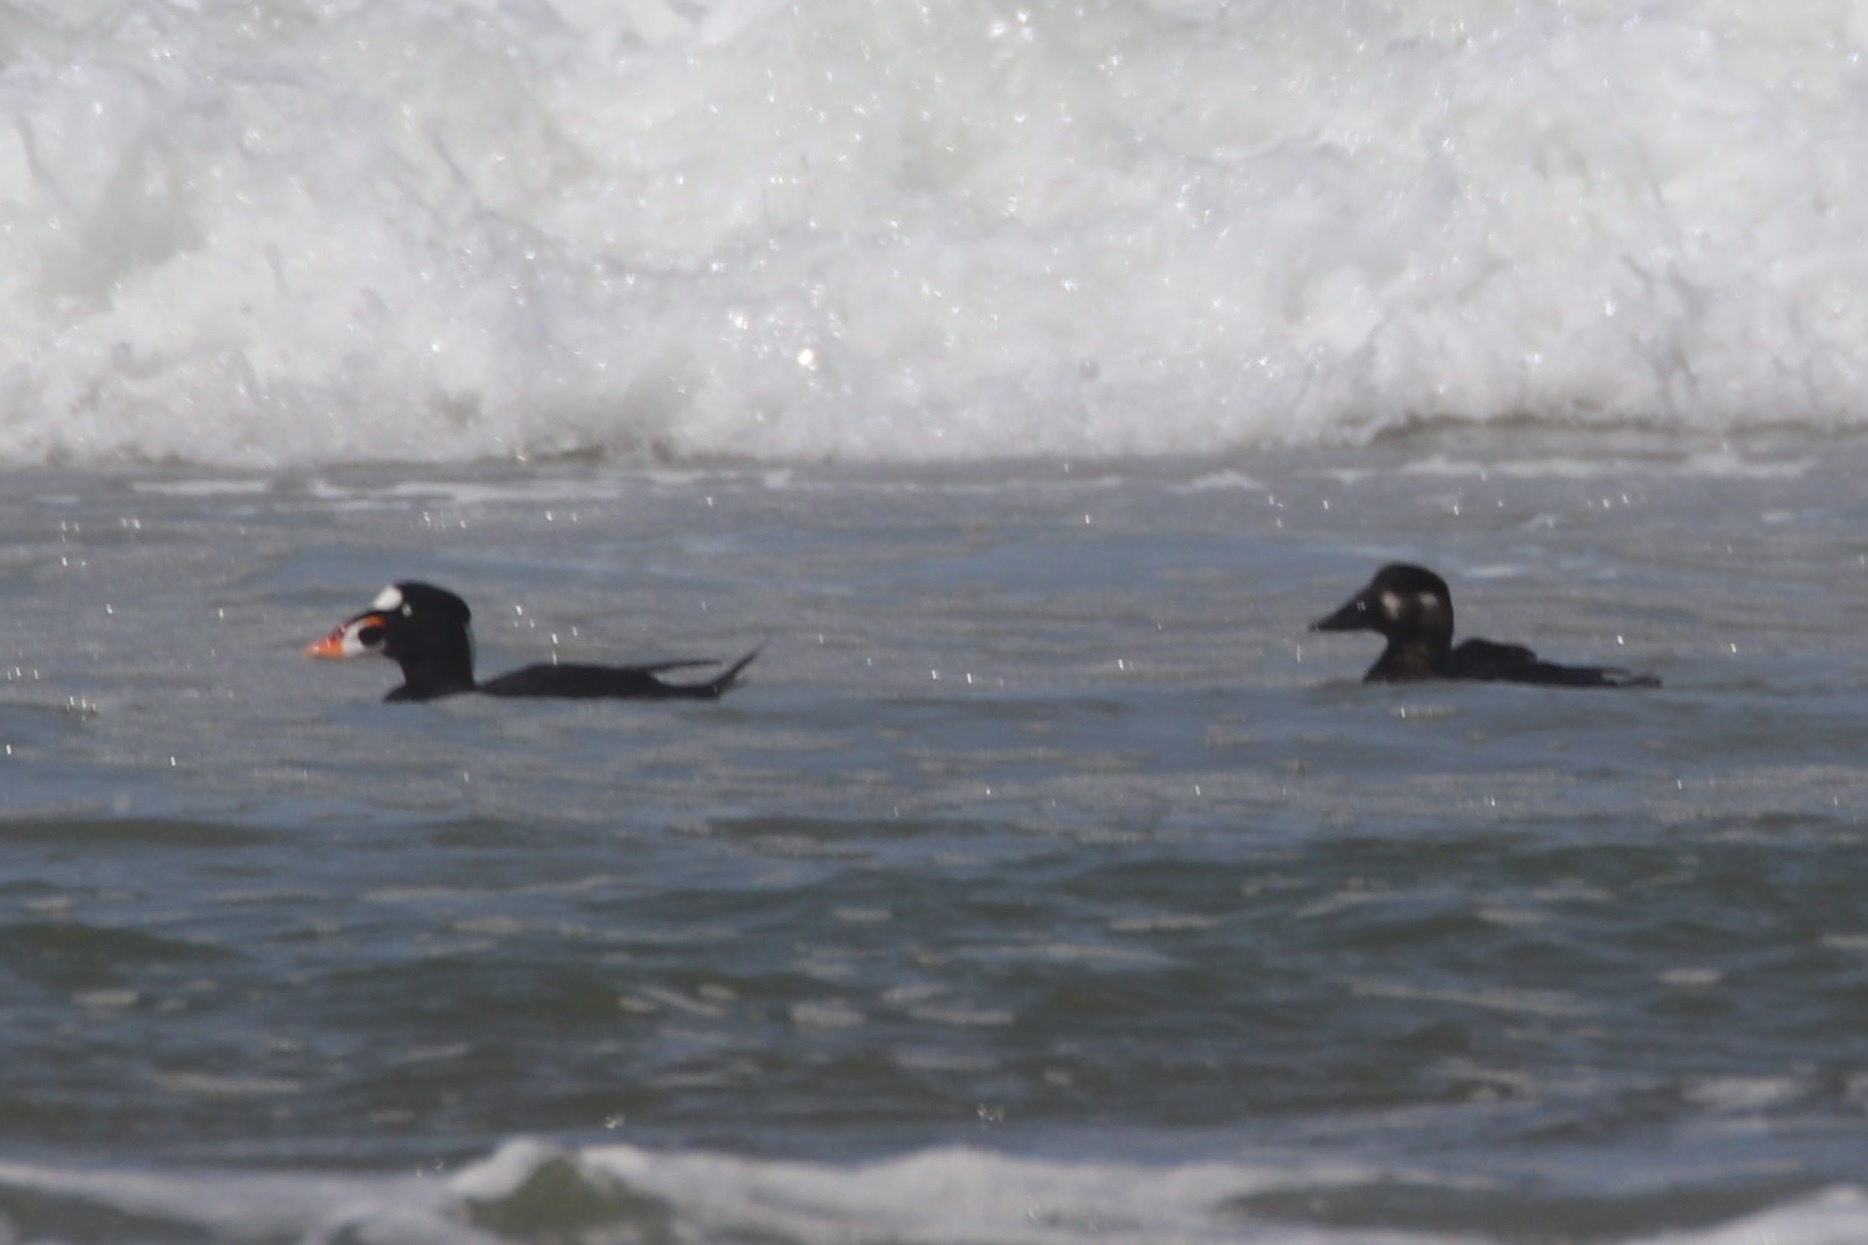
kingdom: Animalia
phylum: Chordata
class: Aves
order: Anseriformes
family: Anatidae
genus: Melanitta
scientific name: Melanitta perspicillata
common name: Surf scoter
